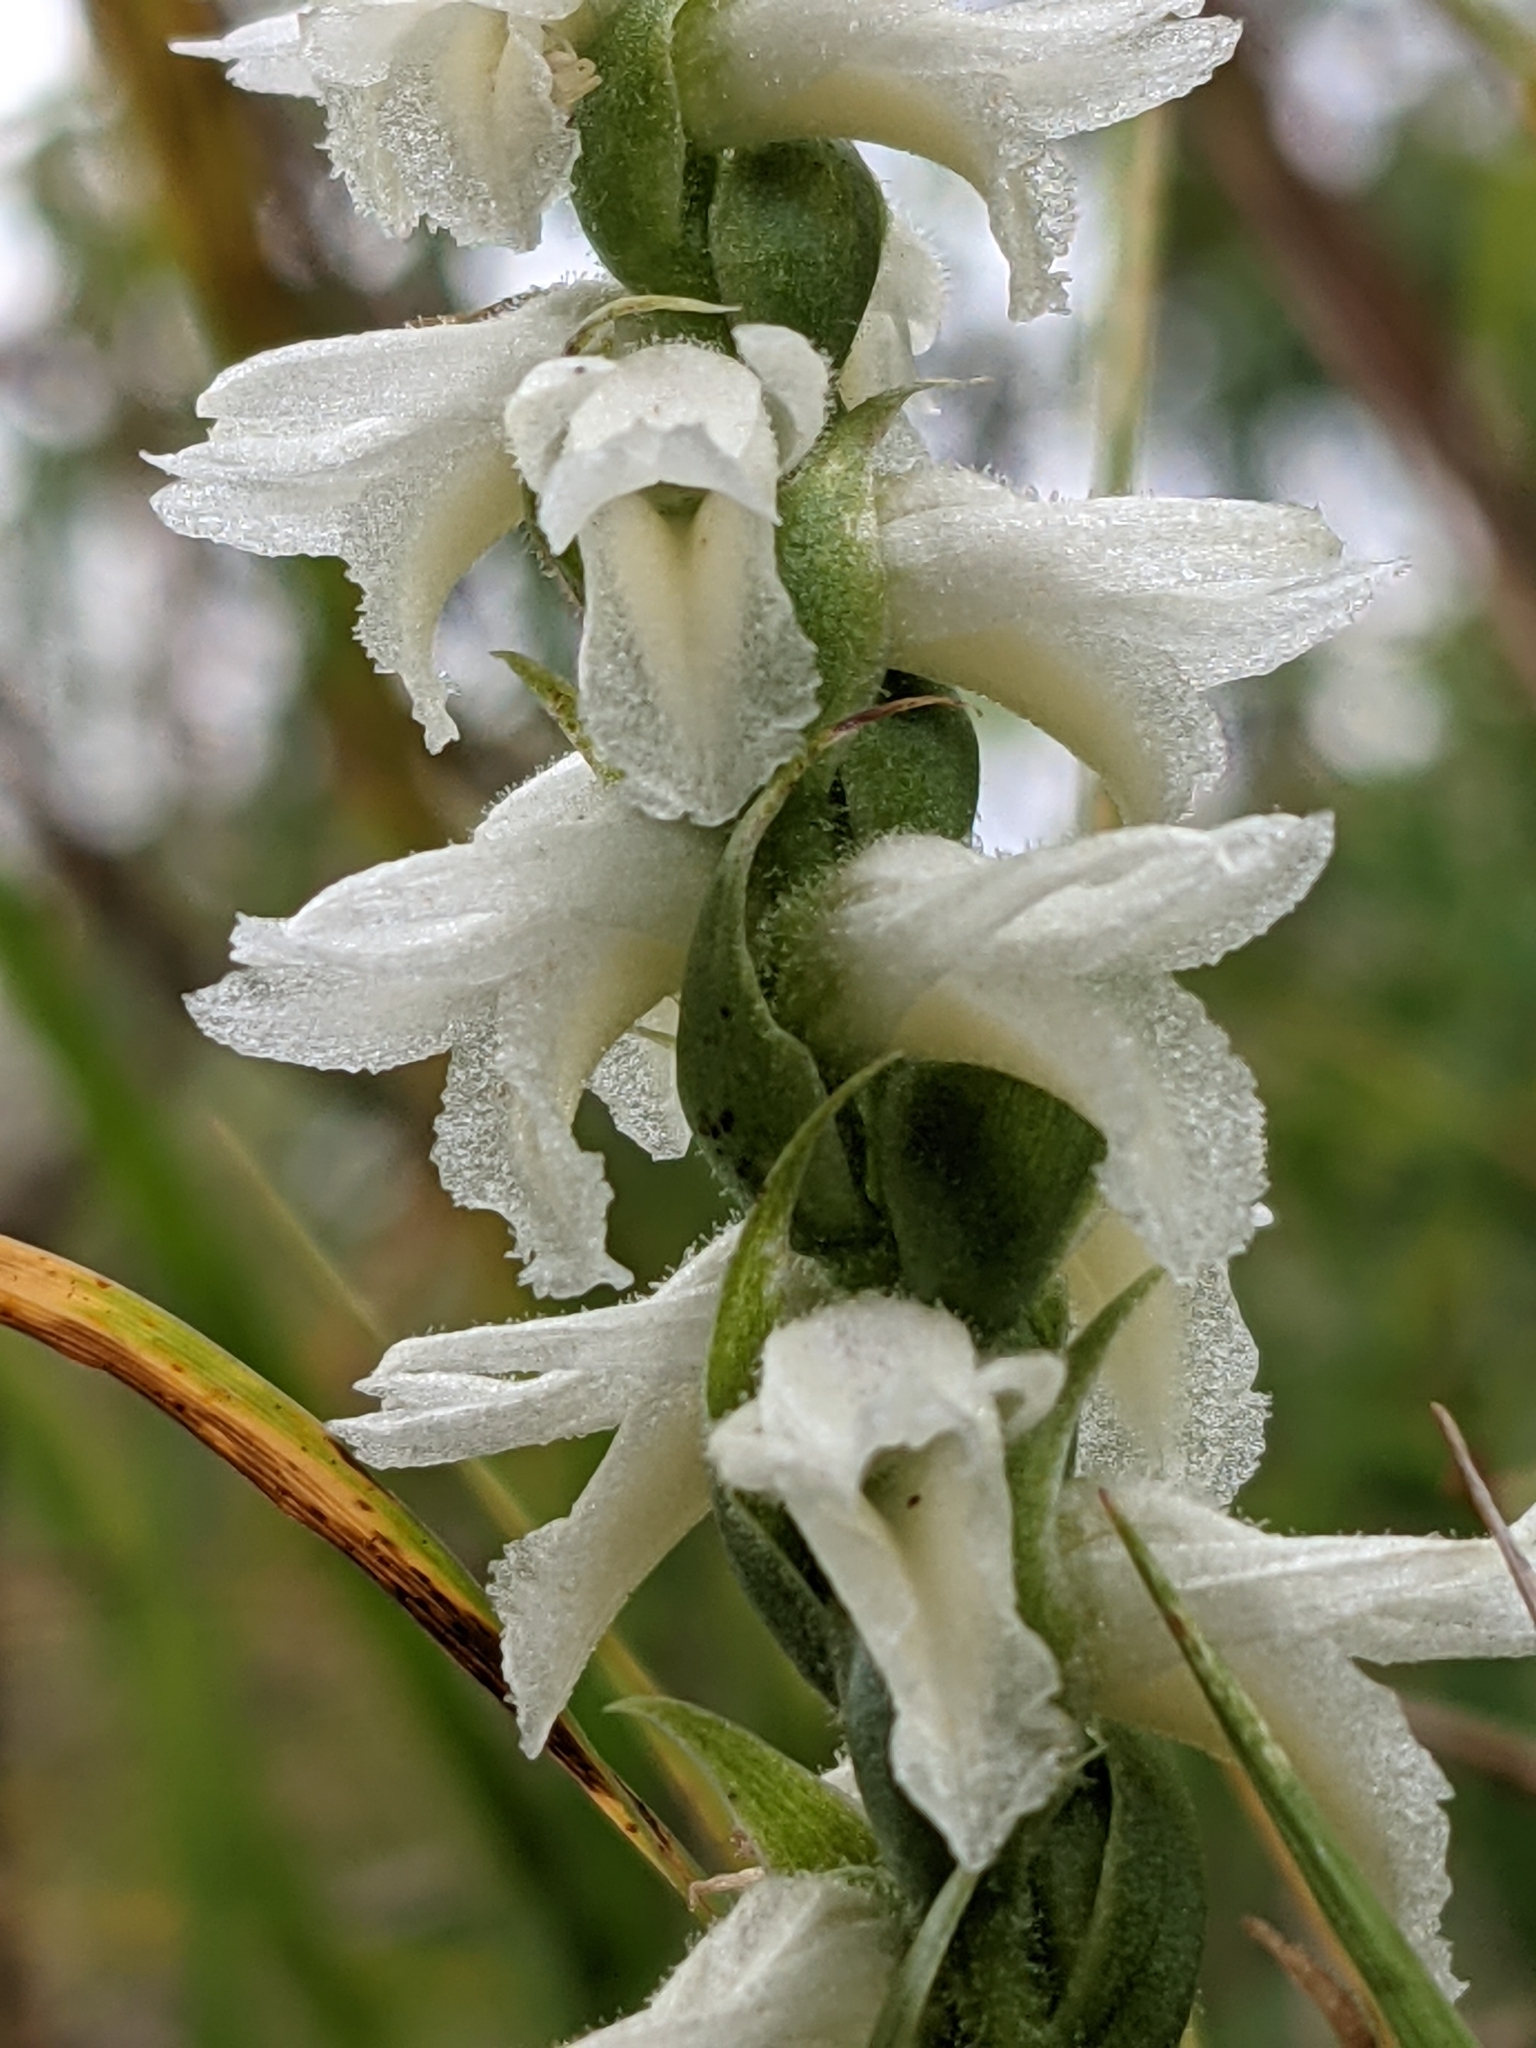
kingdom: Plantae
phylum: Tracheophyta
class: Liliopsida
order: Asparagales
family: Orchidaceae
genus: Spiranthes
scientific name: Spiranthes magnicamporum
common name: Great plains ladies'-tresses
